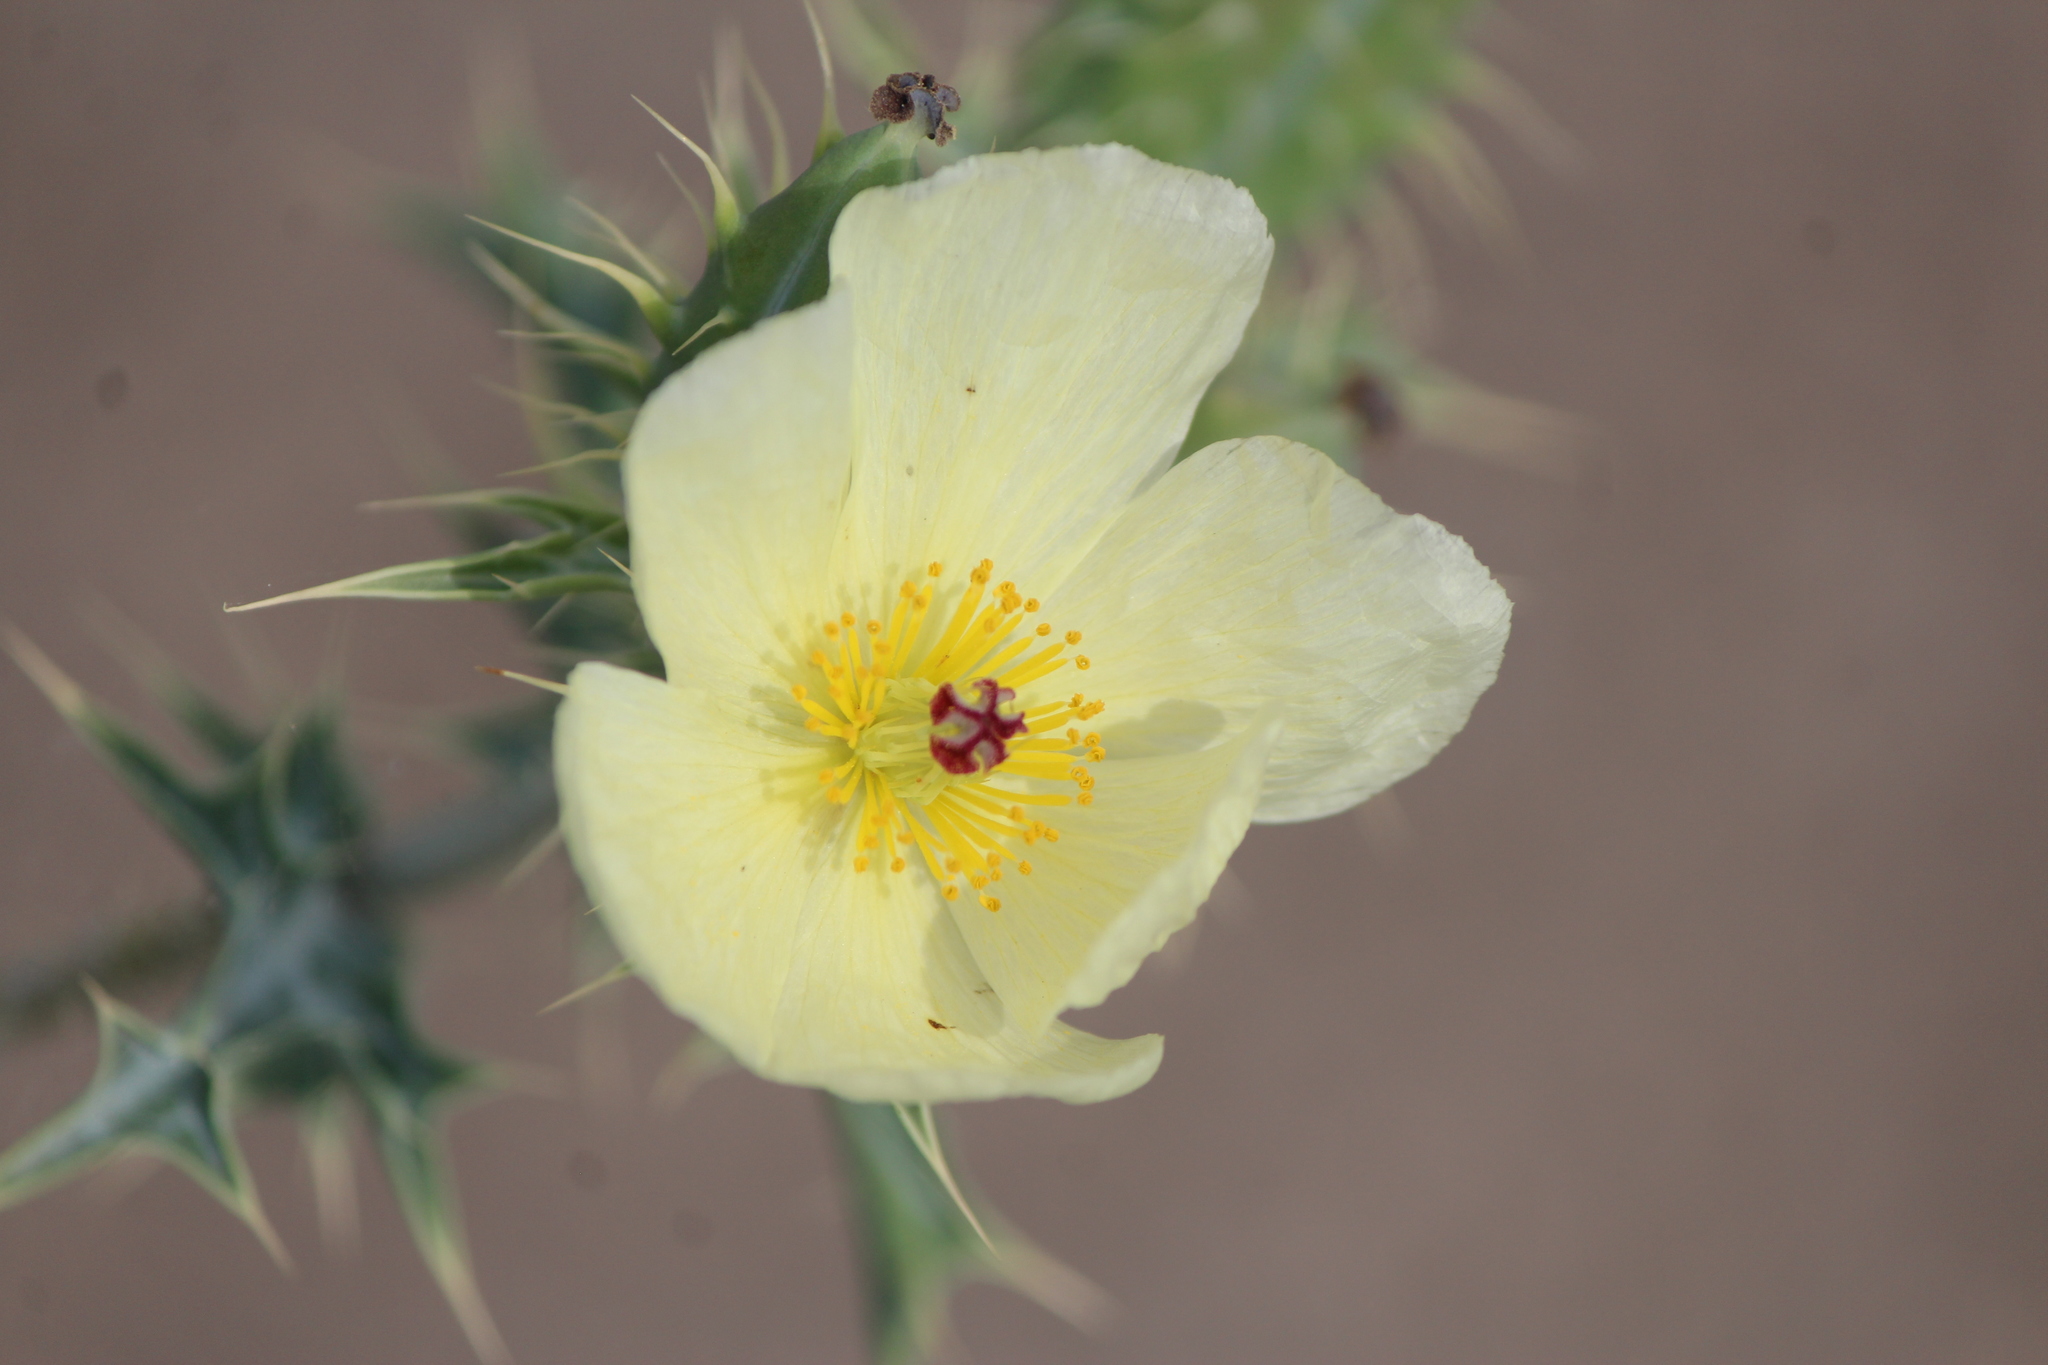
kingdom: Plantae
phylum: Tracheophyta
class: Magnoliopsida
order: Ranunculales
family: Papaveraceae
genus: Argemone
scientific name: Argemone ochroleuca
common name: White-flower mexican-poppy
